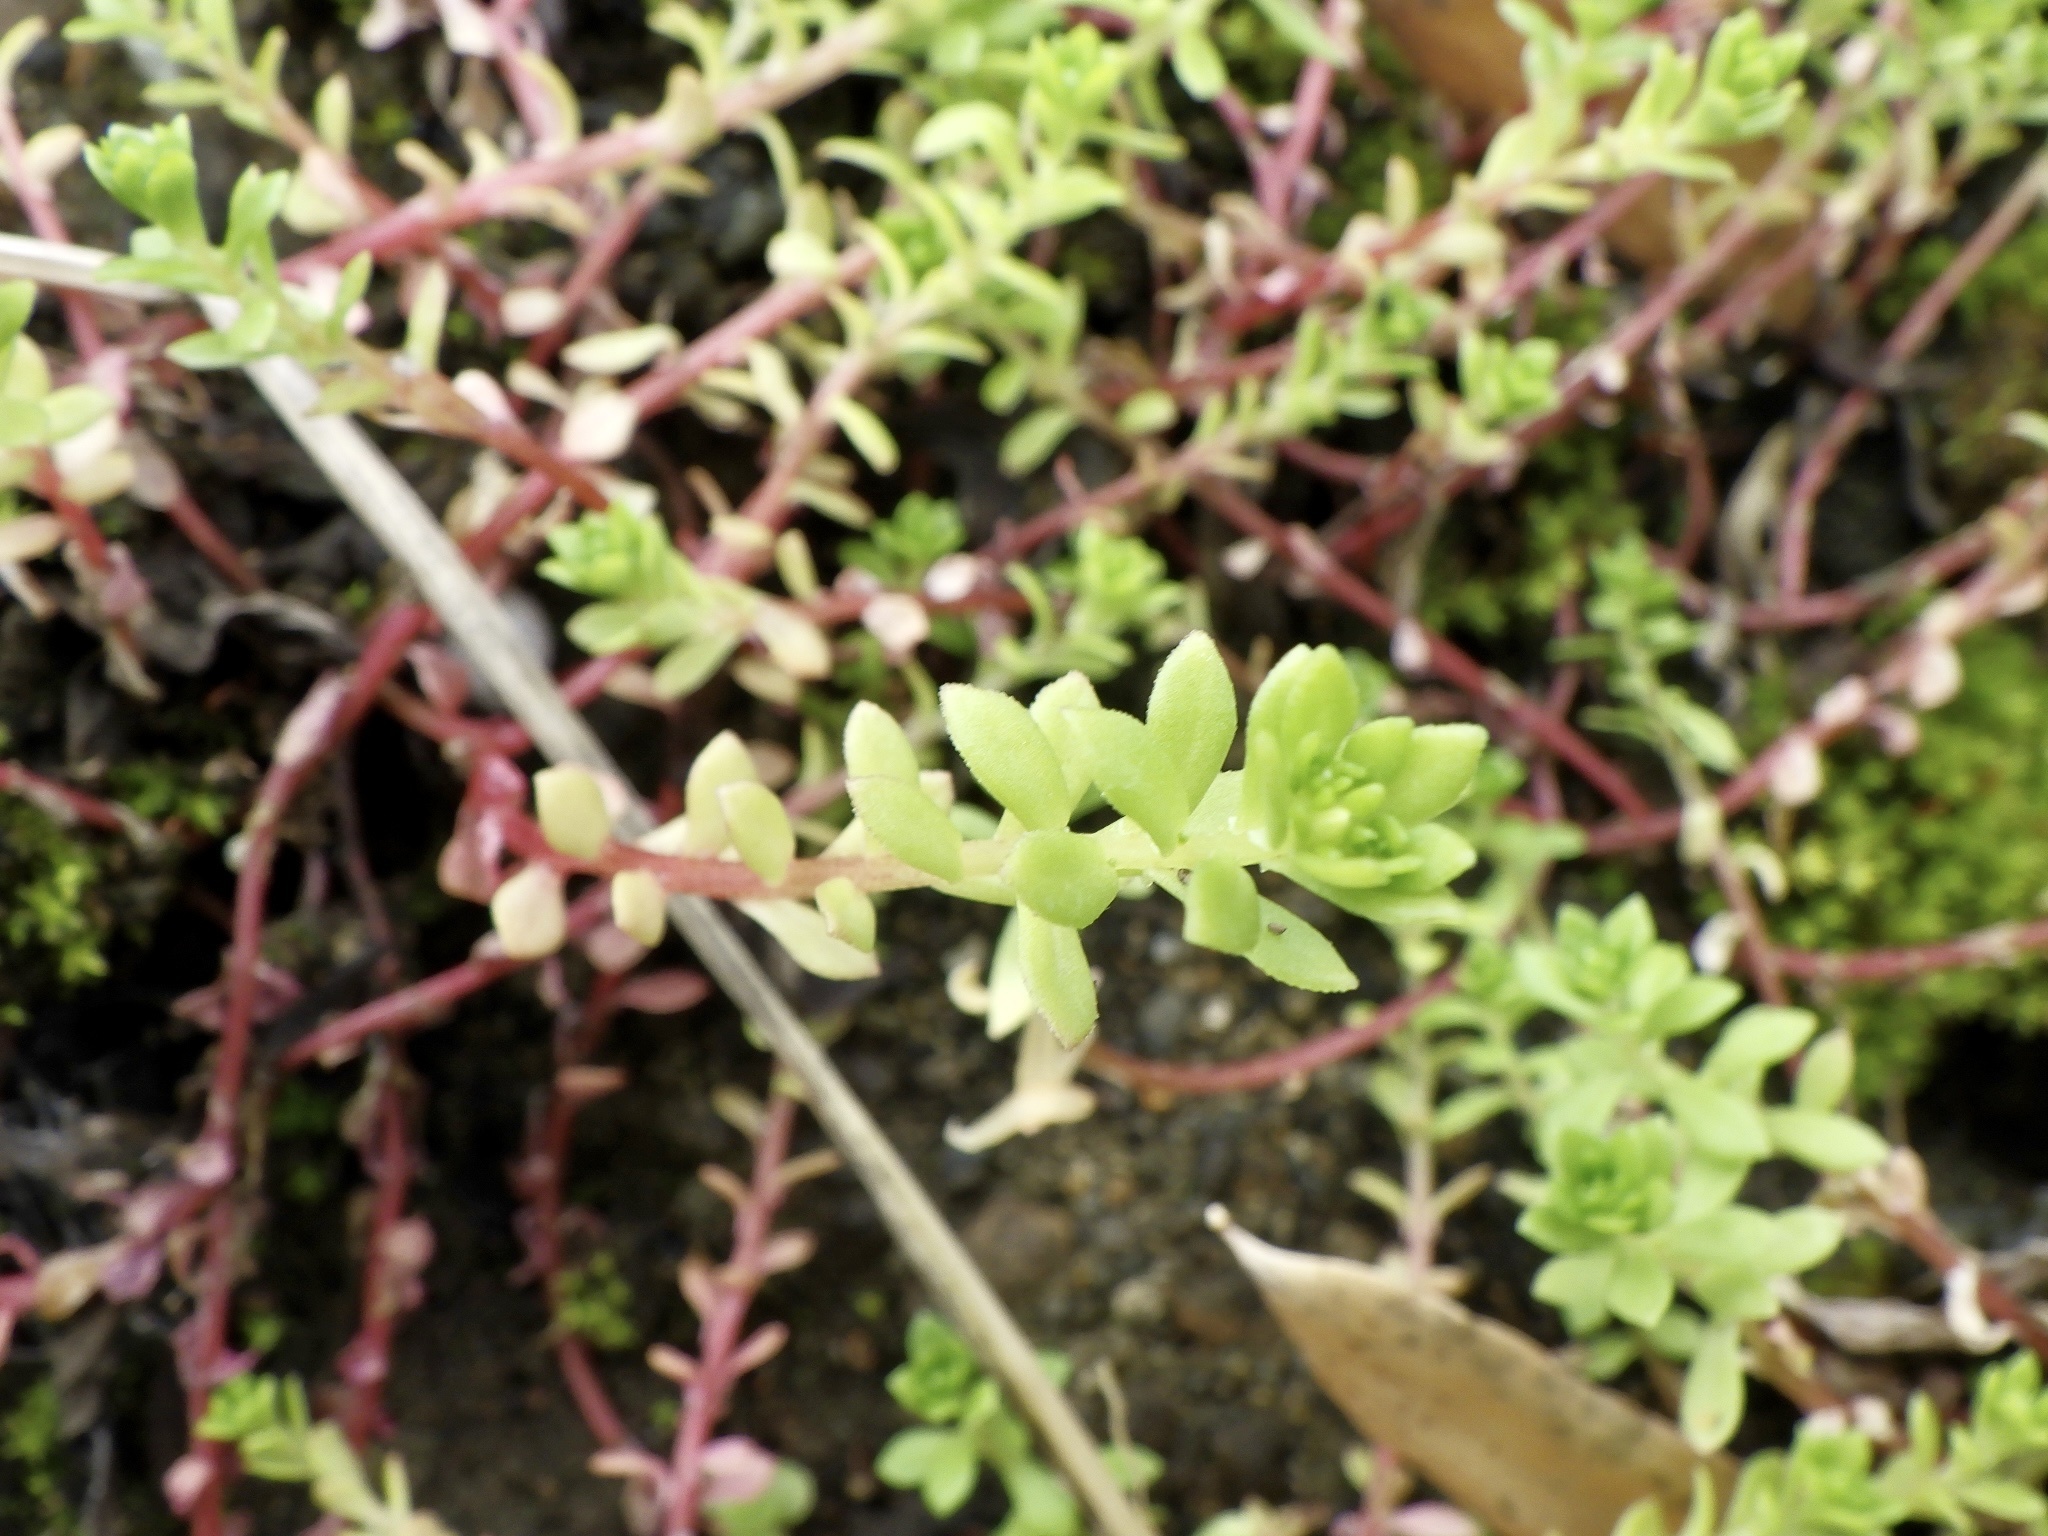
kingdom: Plantae
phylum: Tracheophyta
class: Magnoliopsida
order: Saxifragales
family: Crassulaceae
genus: Sedum
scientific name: Sedum sarmentosum
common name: Stringy stonecrop
